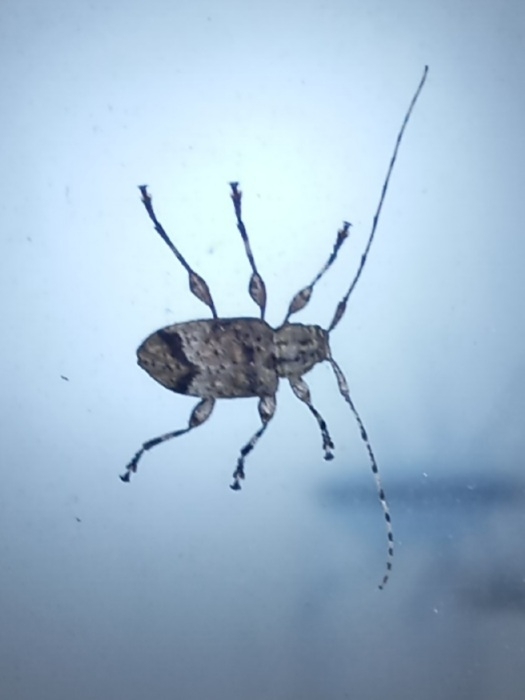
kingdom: Animalia
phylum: Arthropoda
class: Insecta
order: Coleoptera
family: Cerambycidae
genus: Styloleptus
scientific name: Styloleptus biustus
